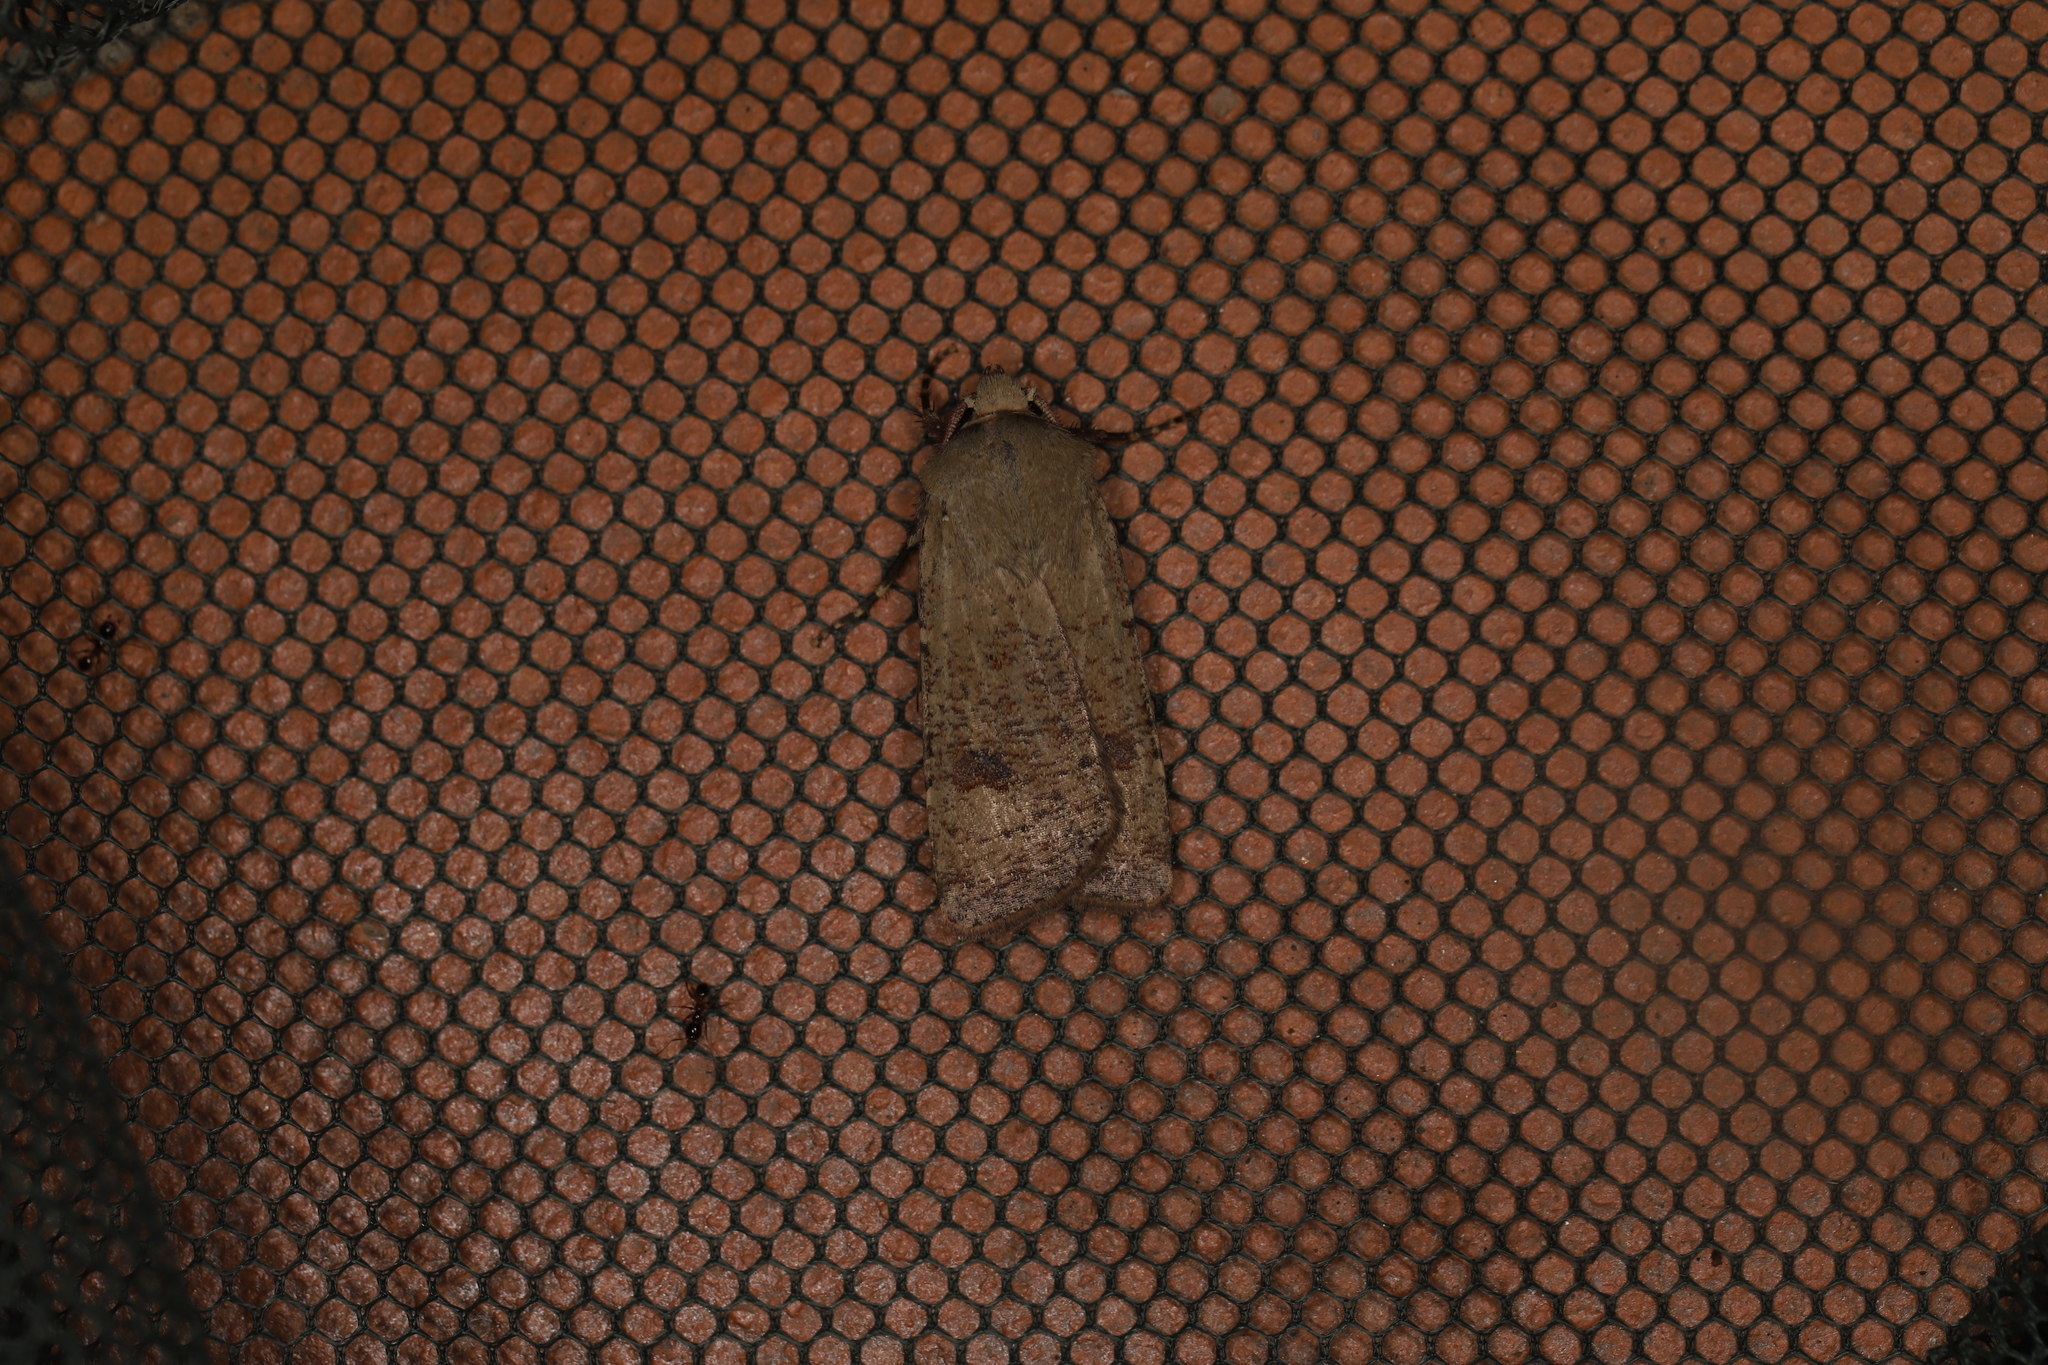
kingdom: Animalia
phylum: Arthropoda
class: Insecta
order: Lepidoptera
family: Noctuidae
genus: Agrotis
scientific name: Agrotis trux
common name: Crescent dart
